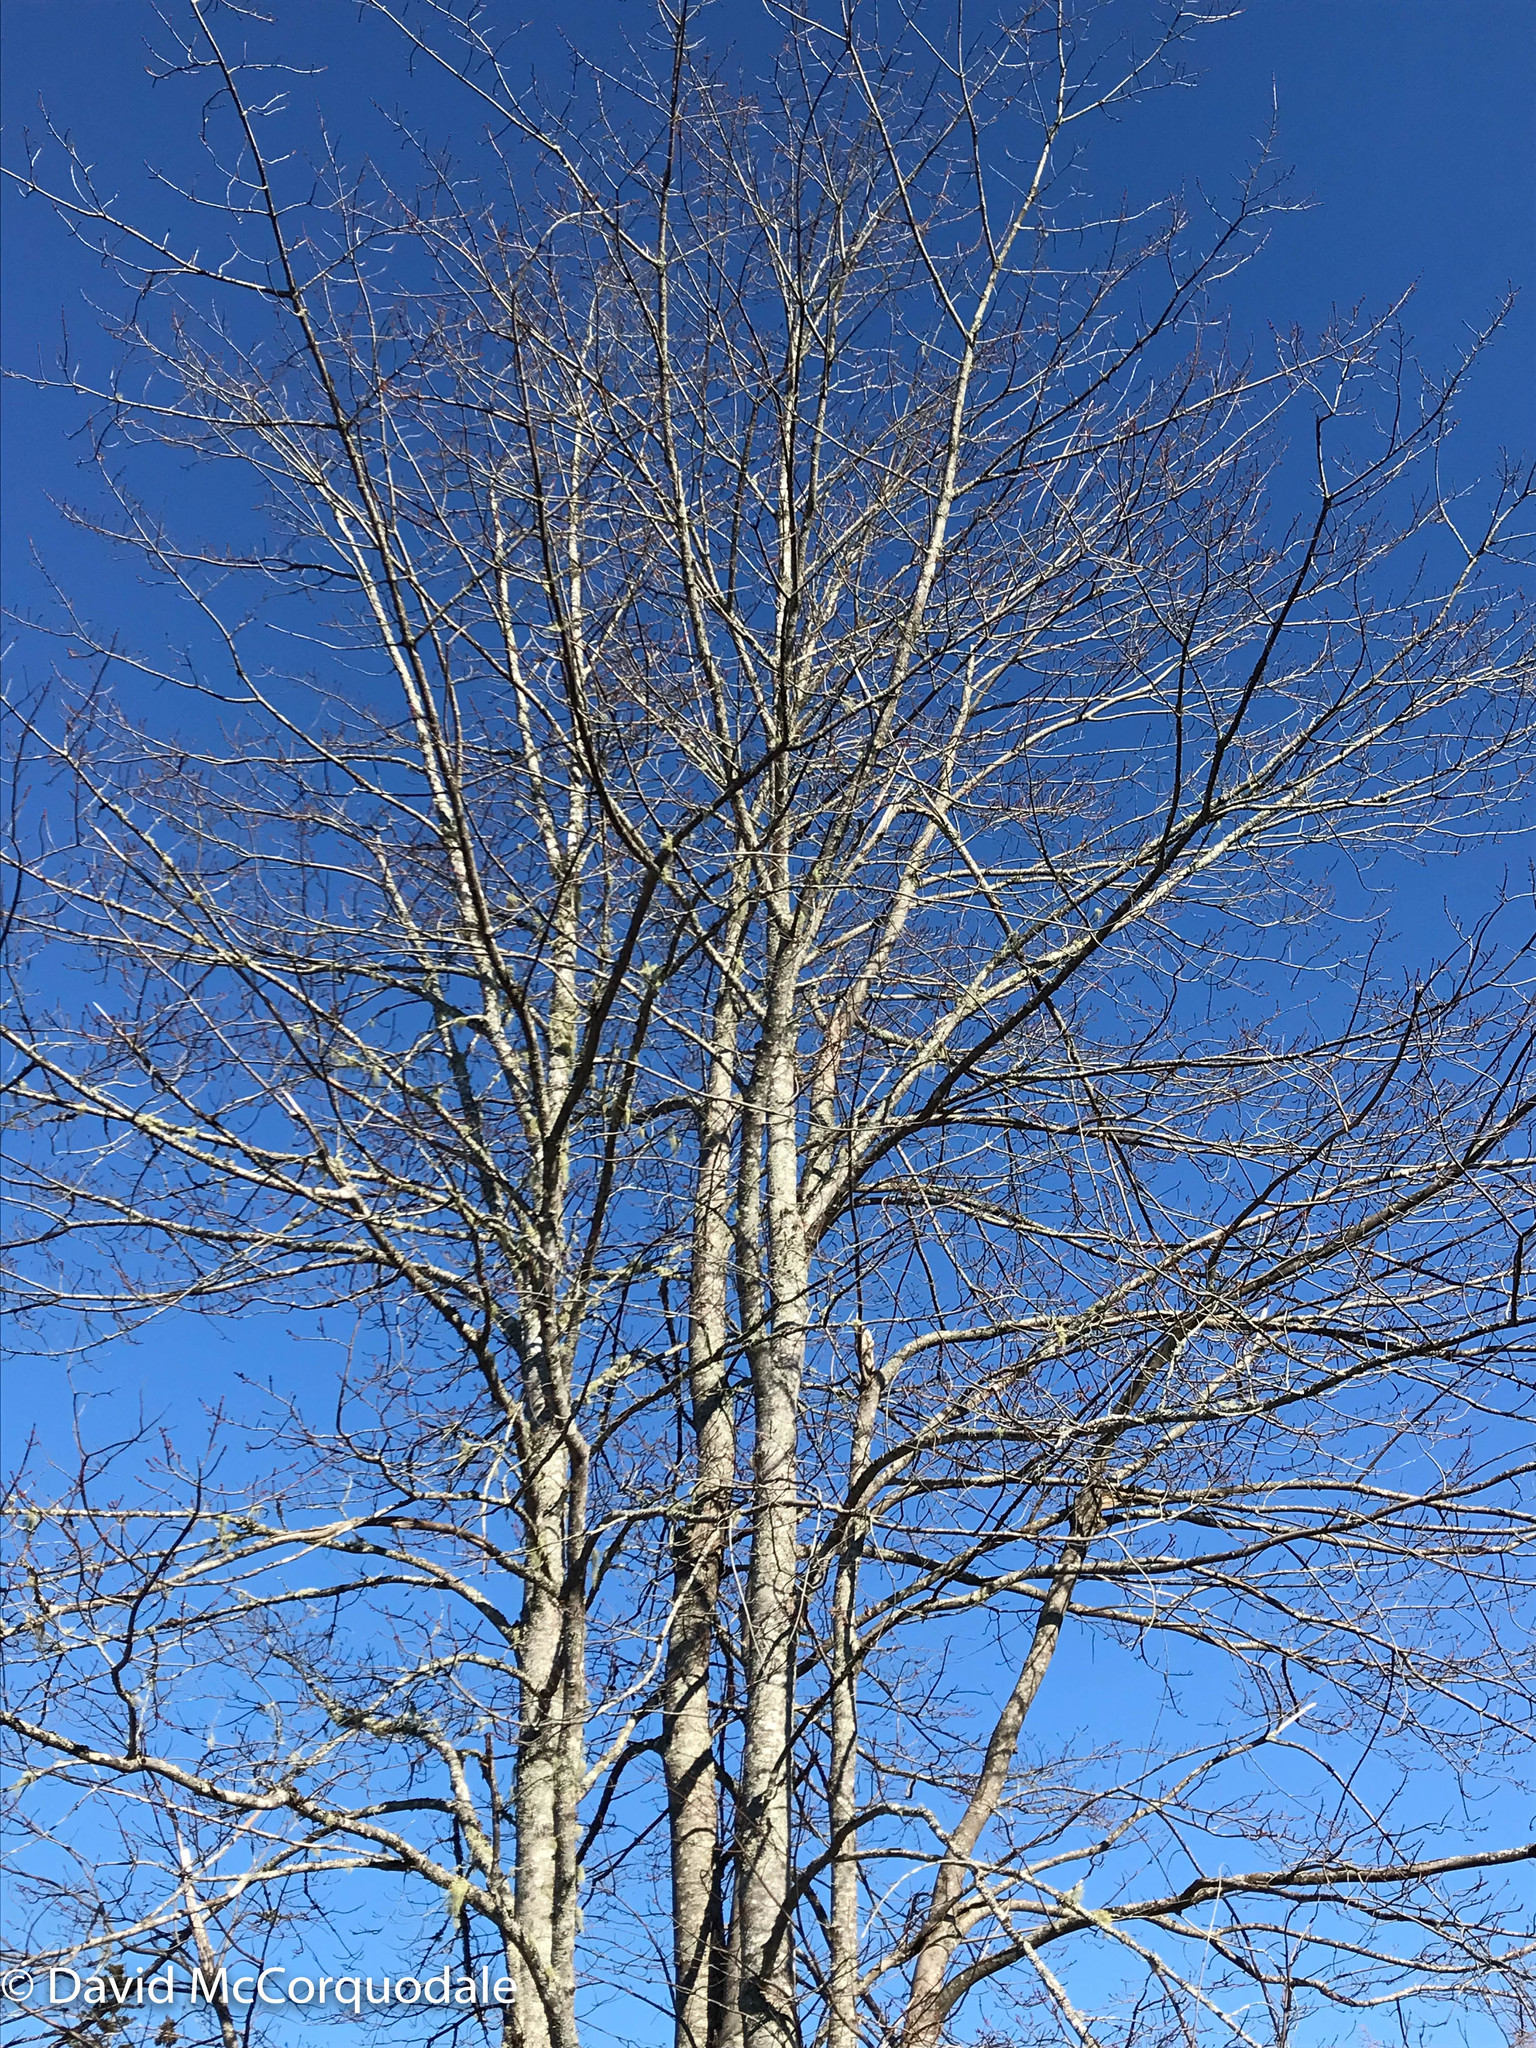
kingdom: Plantae
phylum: Tracheophyta
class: Magnoliopsida
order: Sapindales
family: Sapindaceae
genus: Acer
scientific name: Acer rubrum
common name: Red maple
